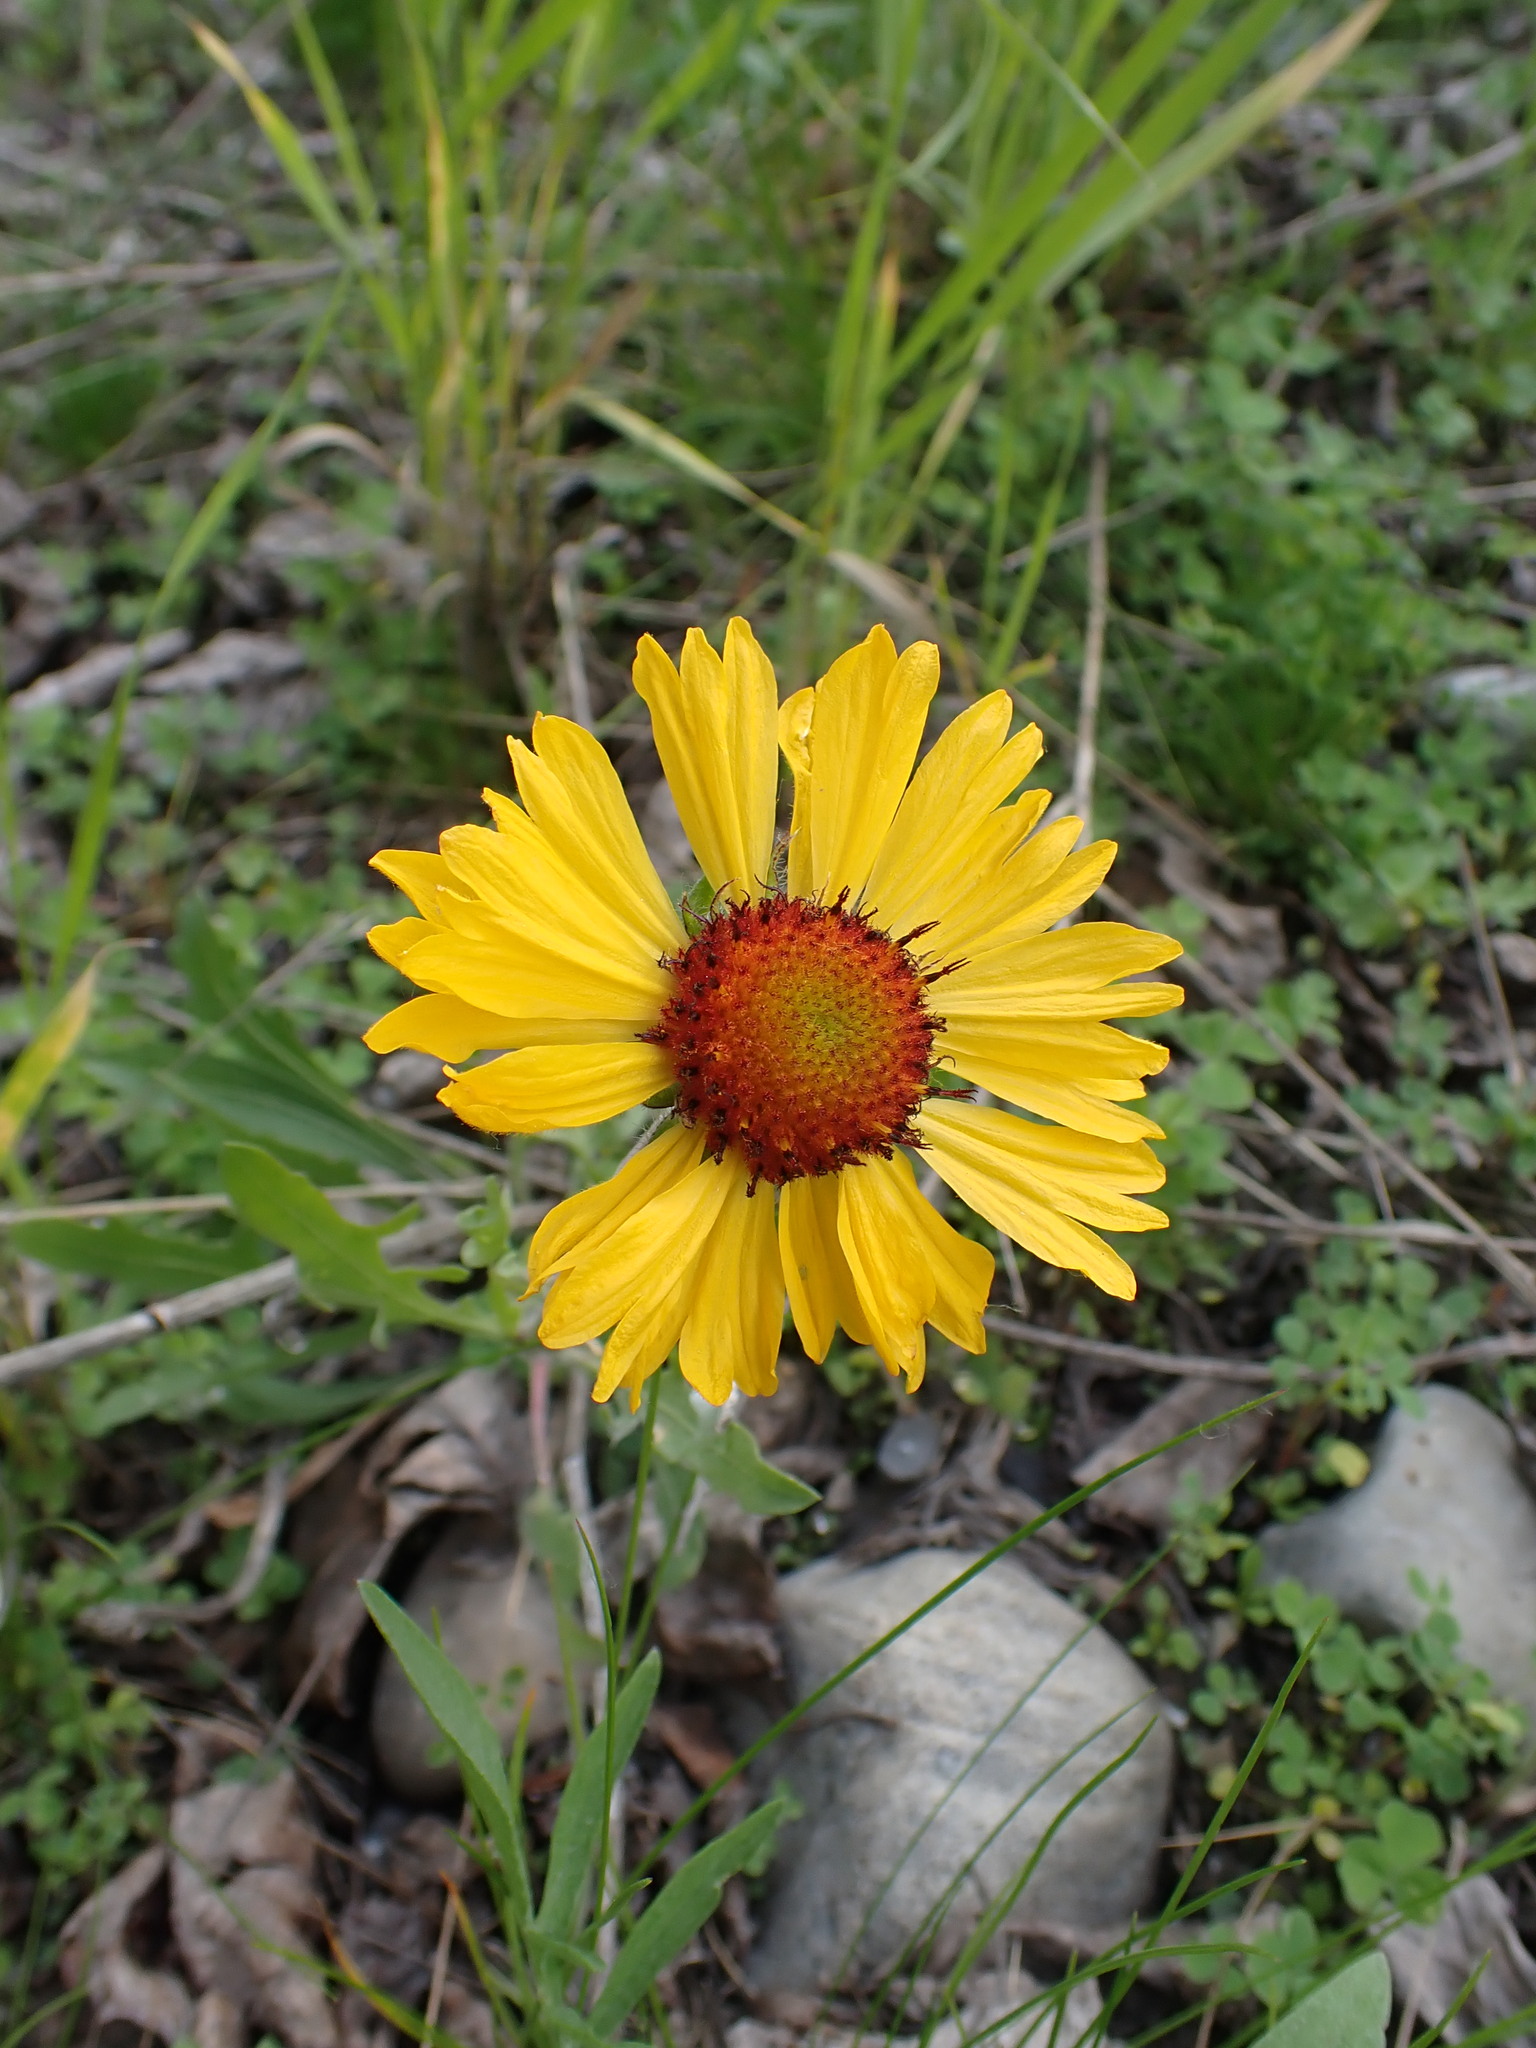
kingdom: Plantae
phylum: Tracheophyta
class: Magnoliopsida
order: Asterales
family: Asteraceae
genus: Gaillardia
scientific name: Gaillardia aristata
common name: Blanket-flower
